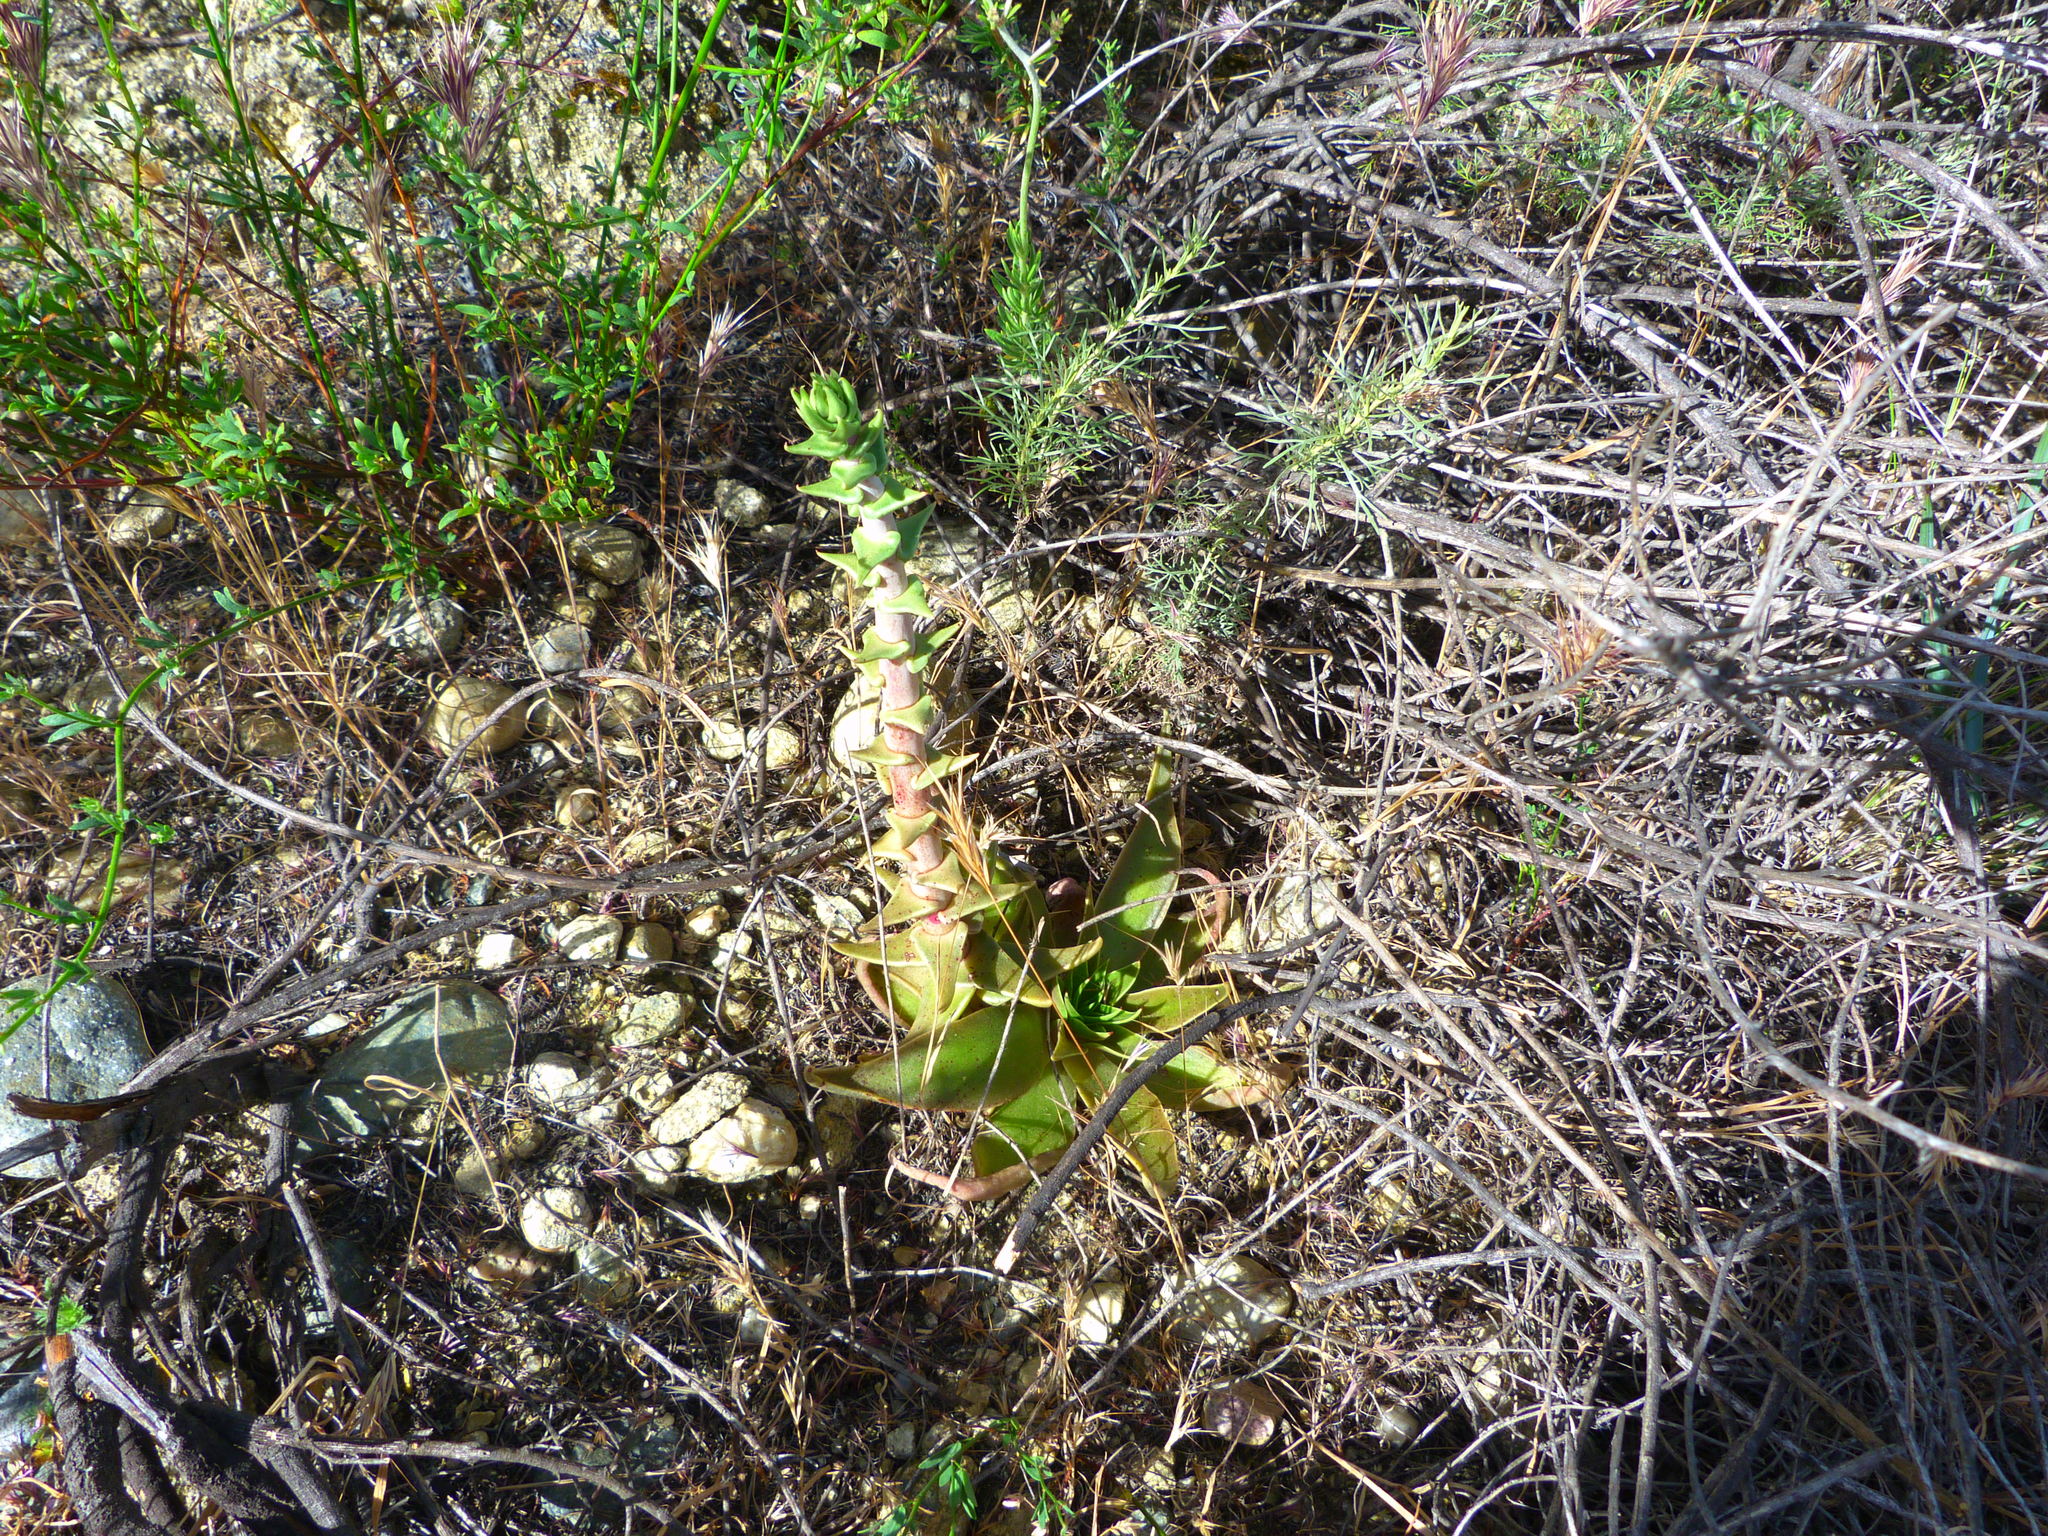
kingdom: Plantae
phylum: Tracheophyta
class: Magnoliopsida
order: Saxifragales
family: Crassulaceae
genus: Dudleya
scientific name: Dudleya lanceolata
